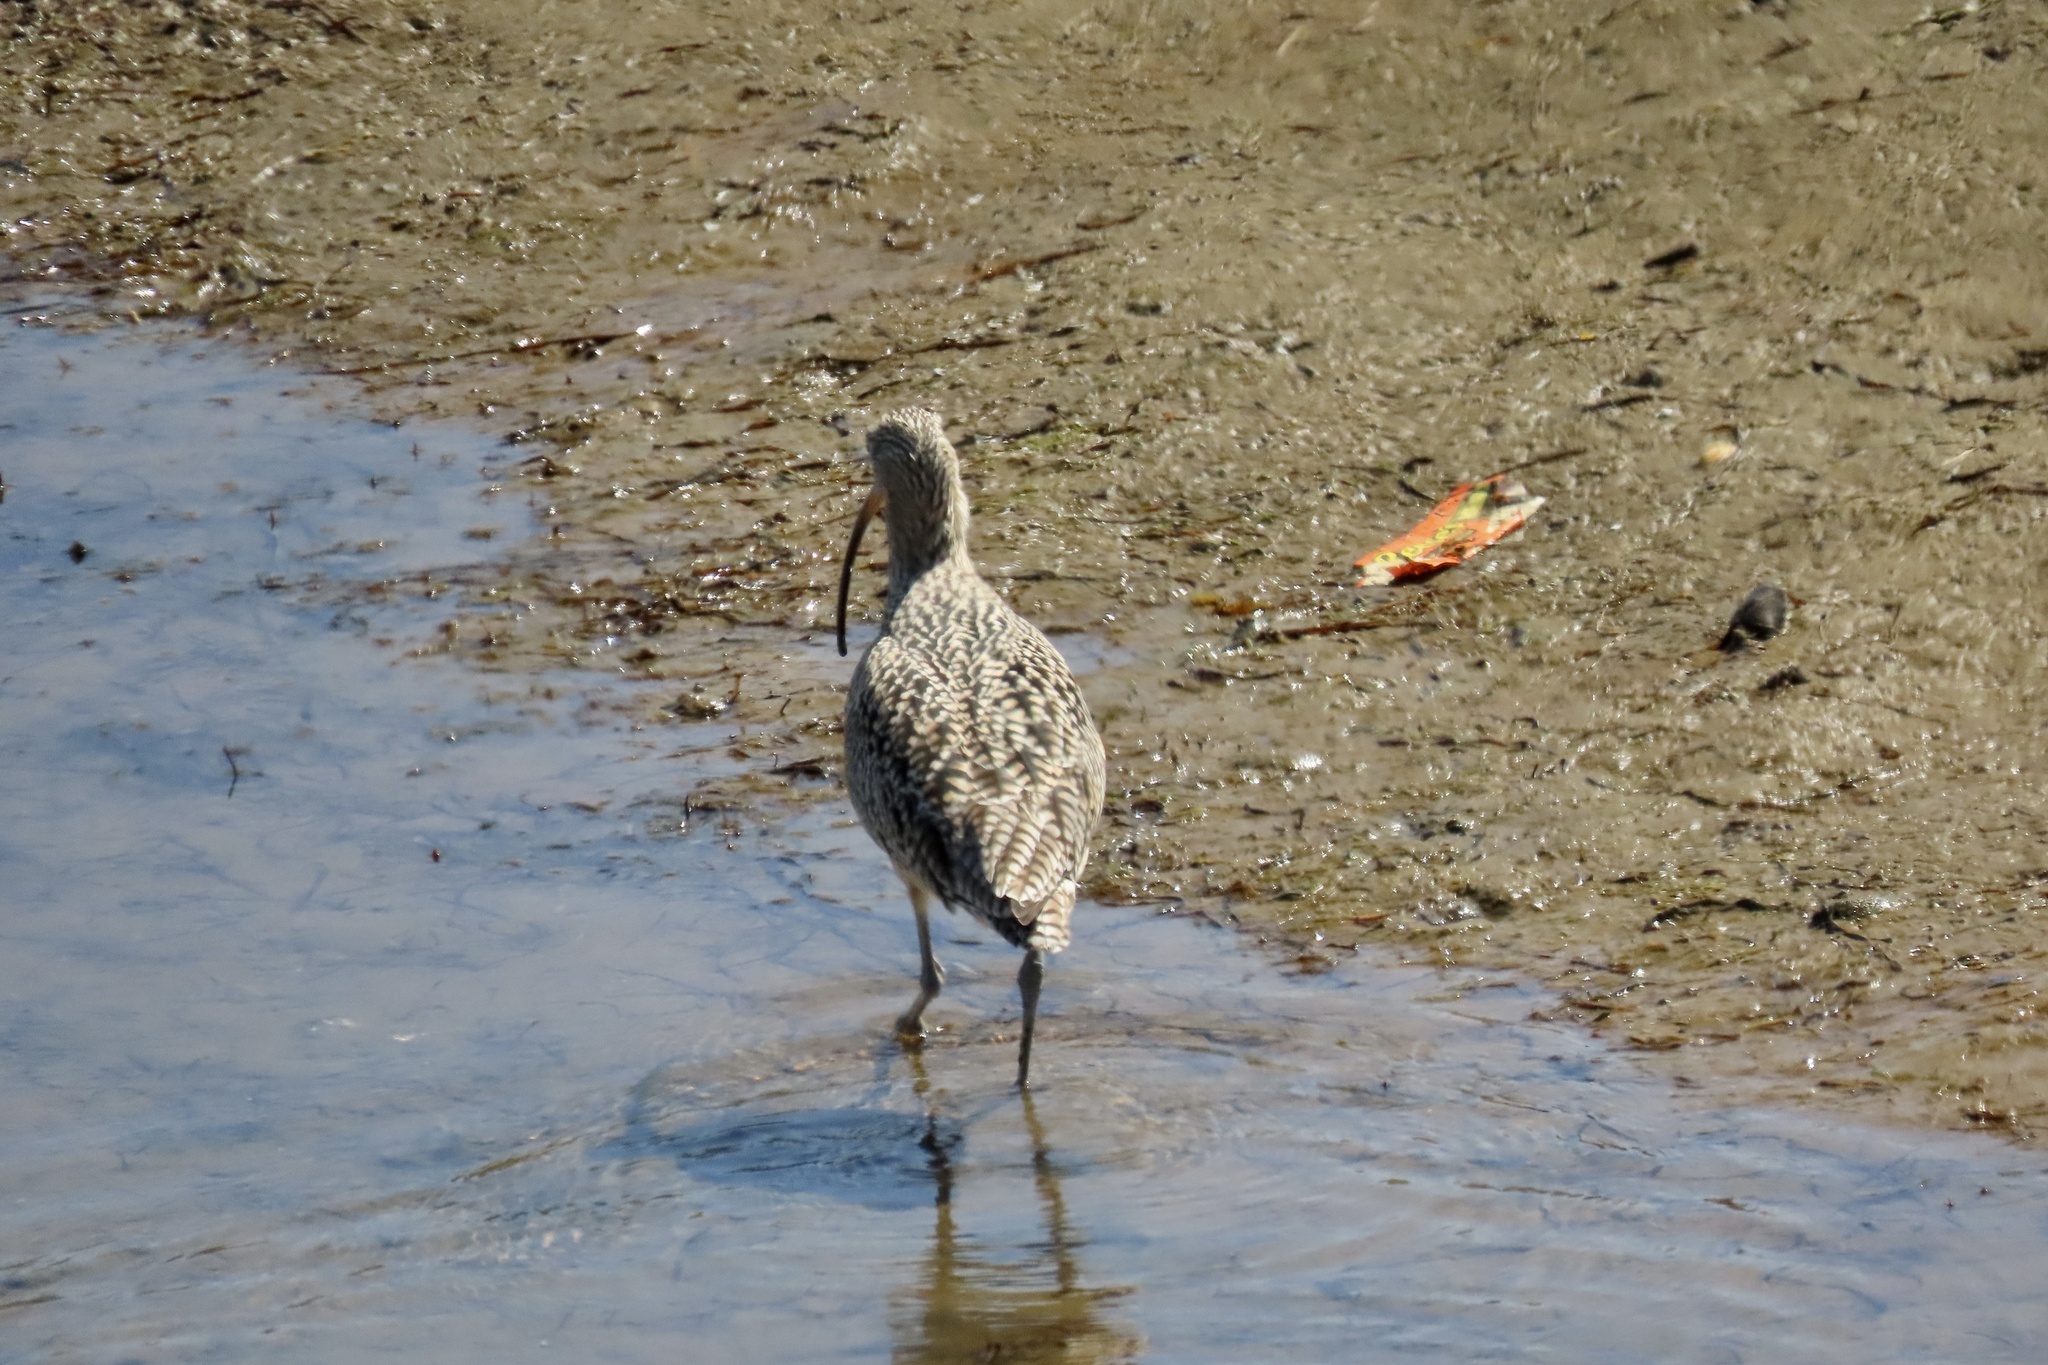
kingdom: Animalia
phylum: Chordata
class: Aves
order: Charadriiformes
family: Scolopacidae
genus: Numenius
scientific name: Numenius americanus
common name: Long-billed curlew
